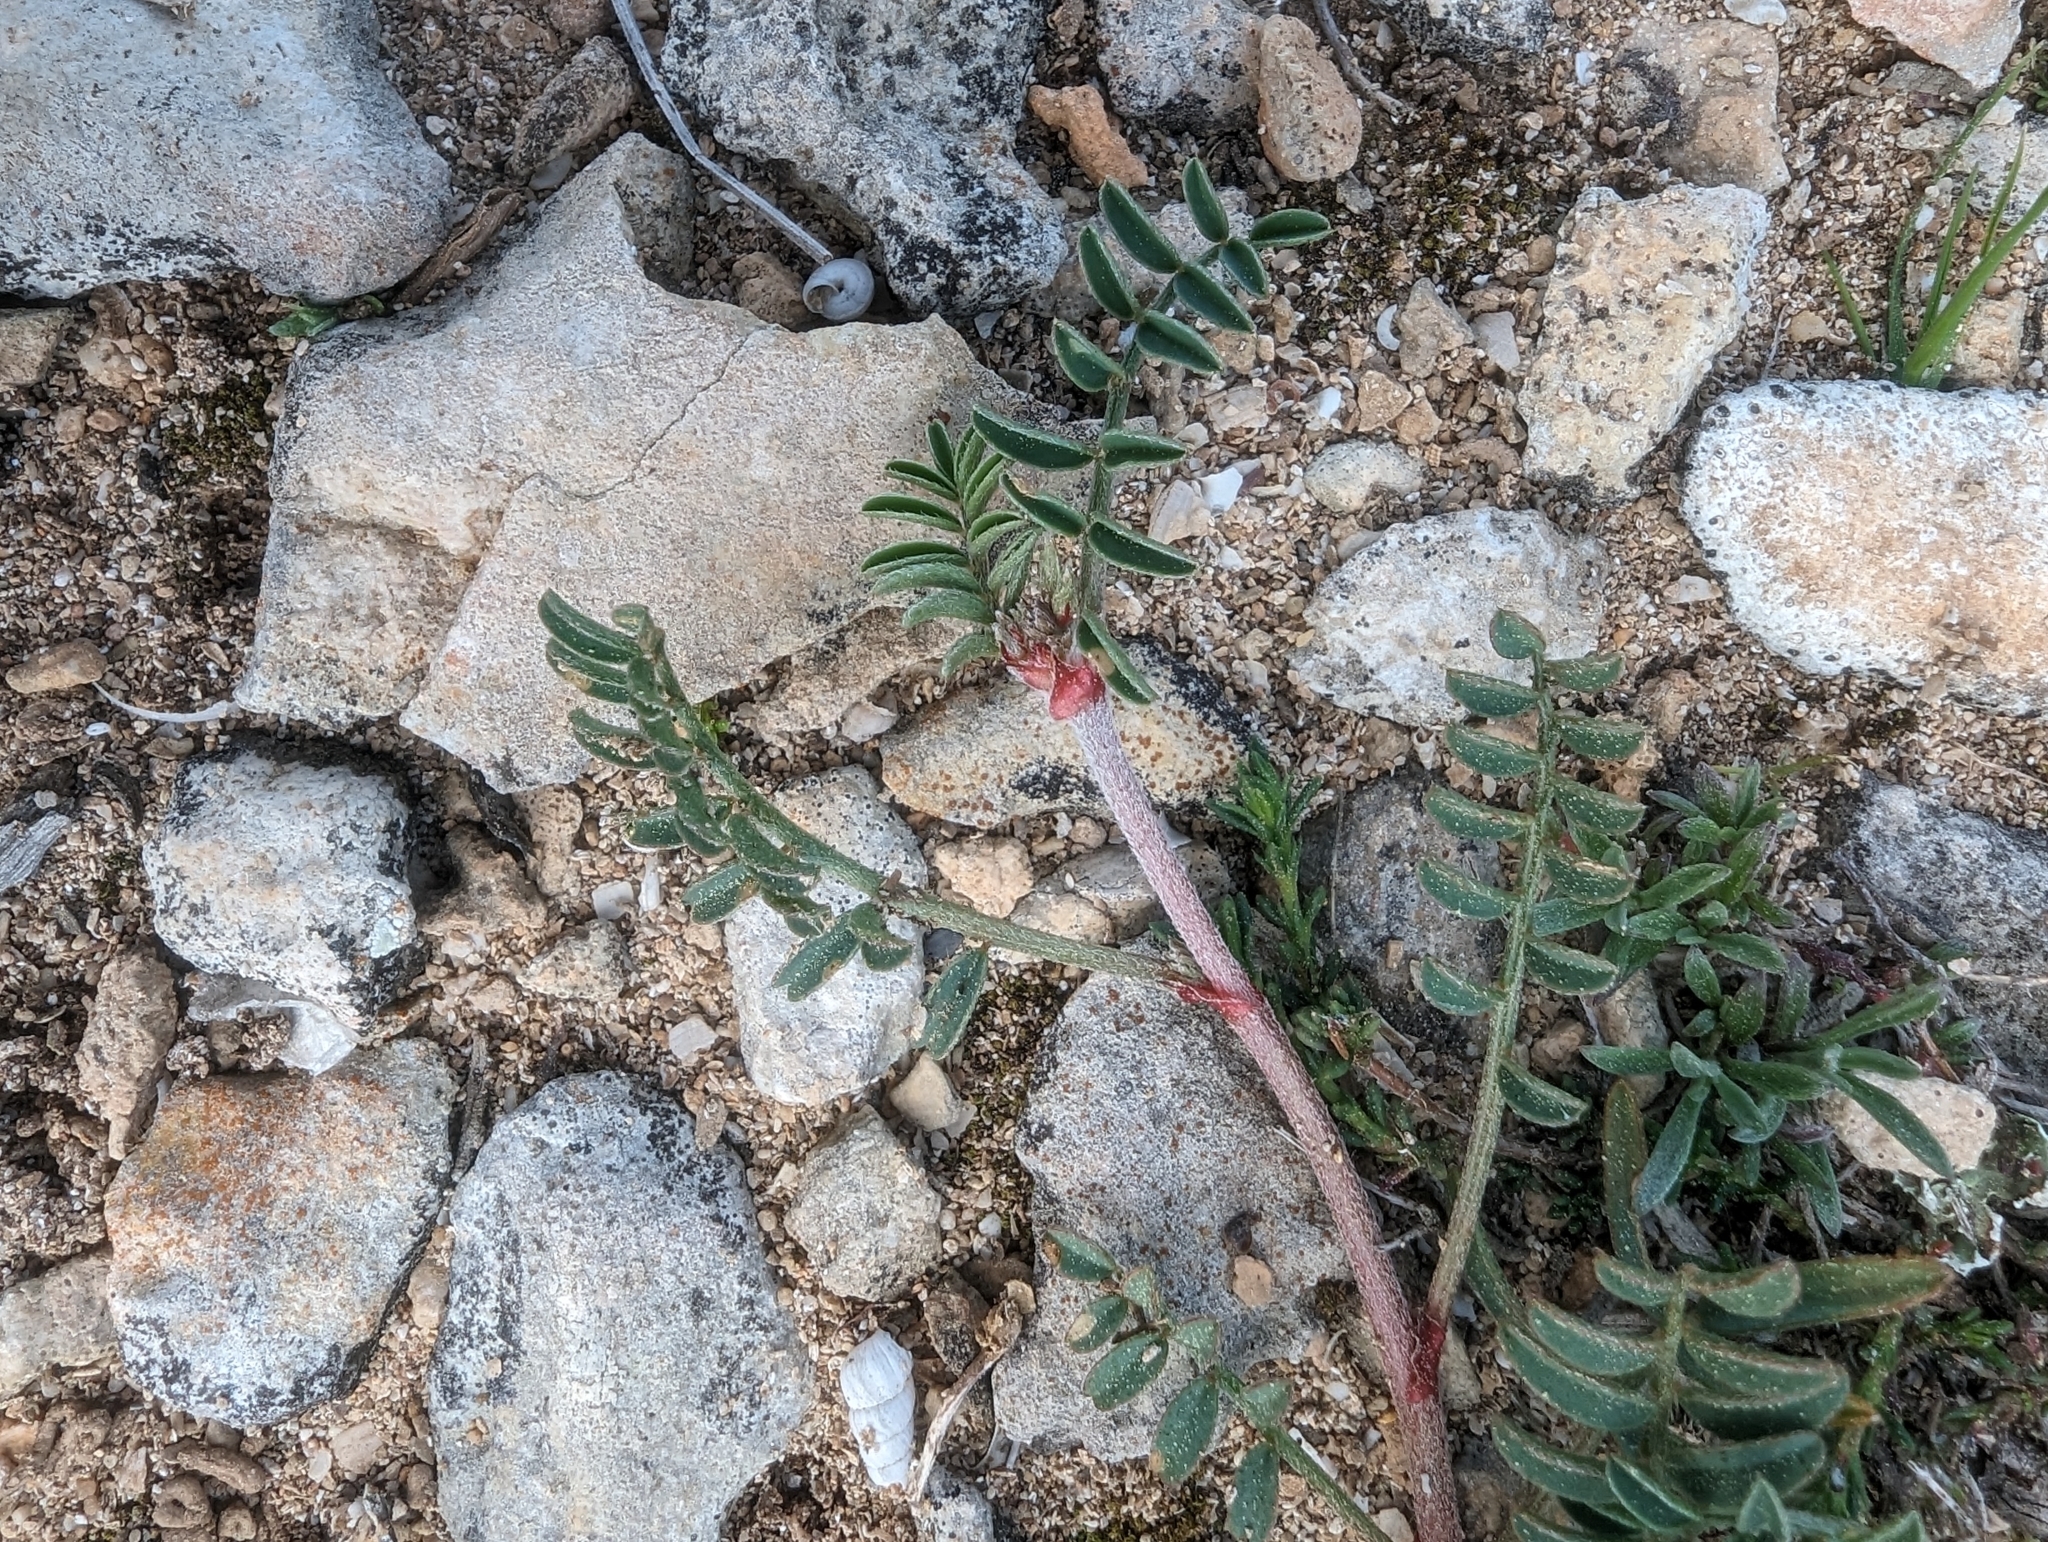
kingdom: Plantae
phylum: Tracheophyta
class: Magnoliopsida
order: Fabales
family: Fabaceae
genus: Sulla
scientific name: Sulla spinosissima
